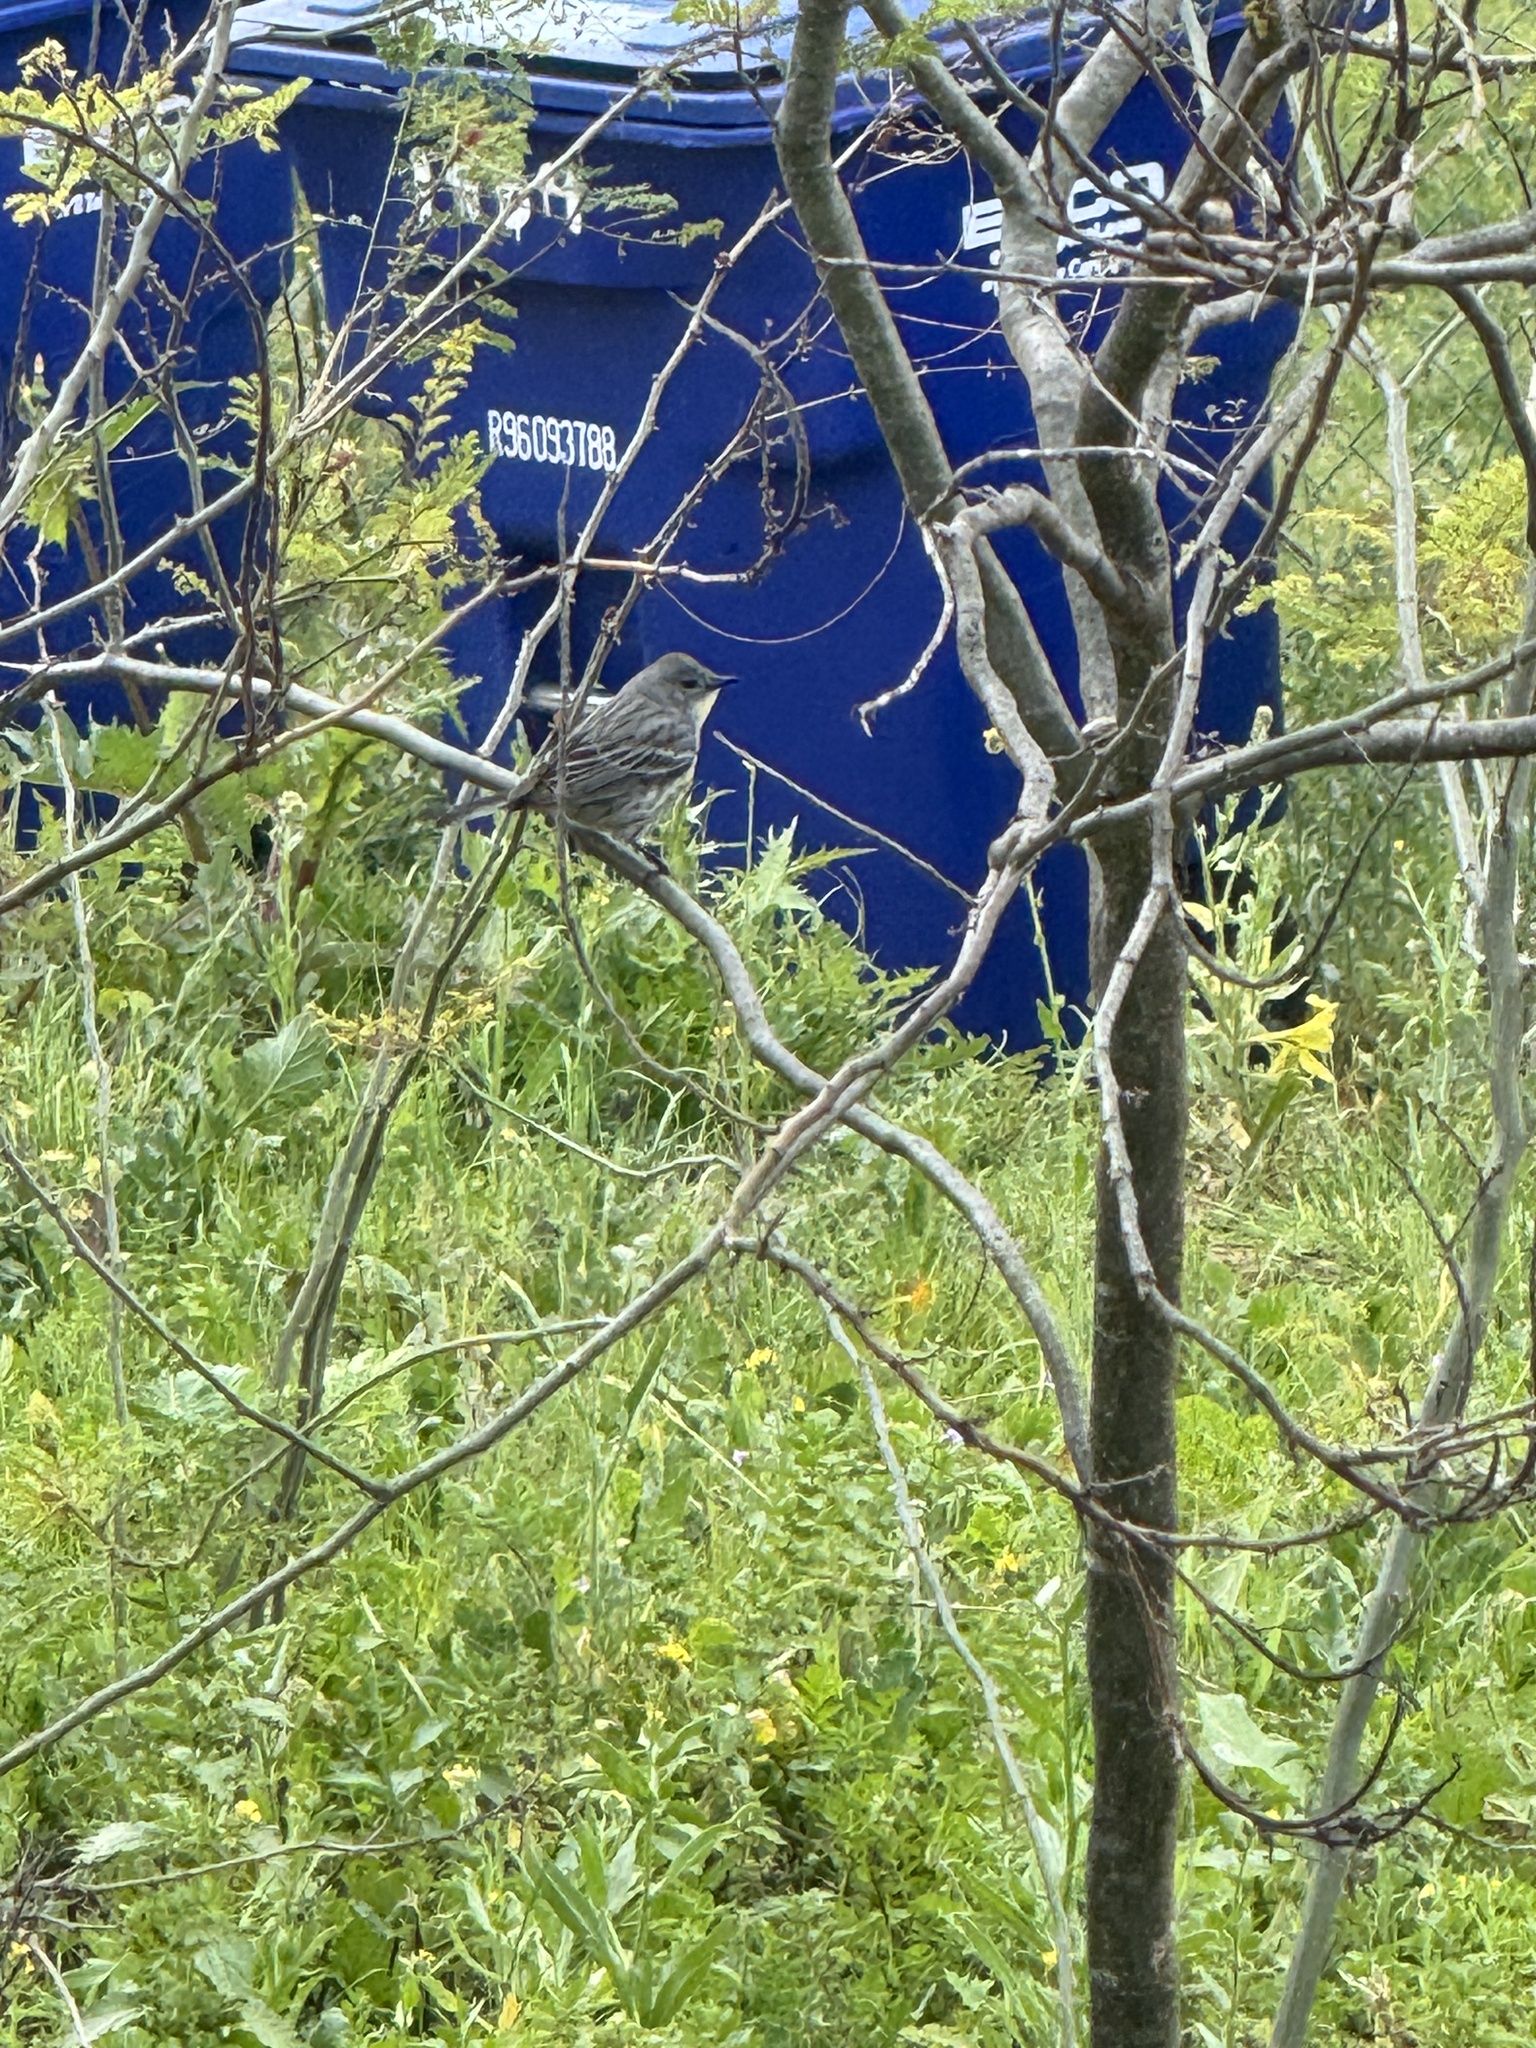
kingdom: Animalia
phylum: Chordata
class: Aves
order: Passeriformes
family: Parulidae
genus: Setophaga
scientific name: Setophaga auduboni
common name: Audubon's warbler
